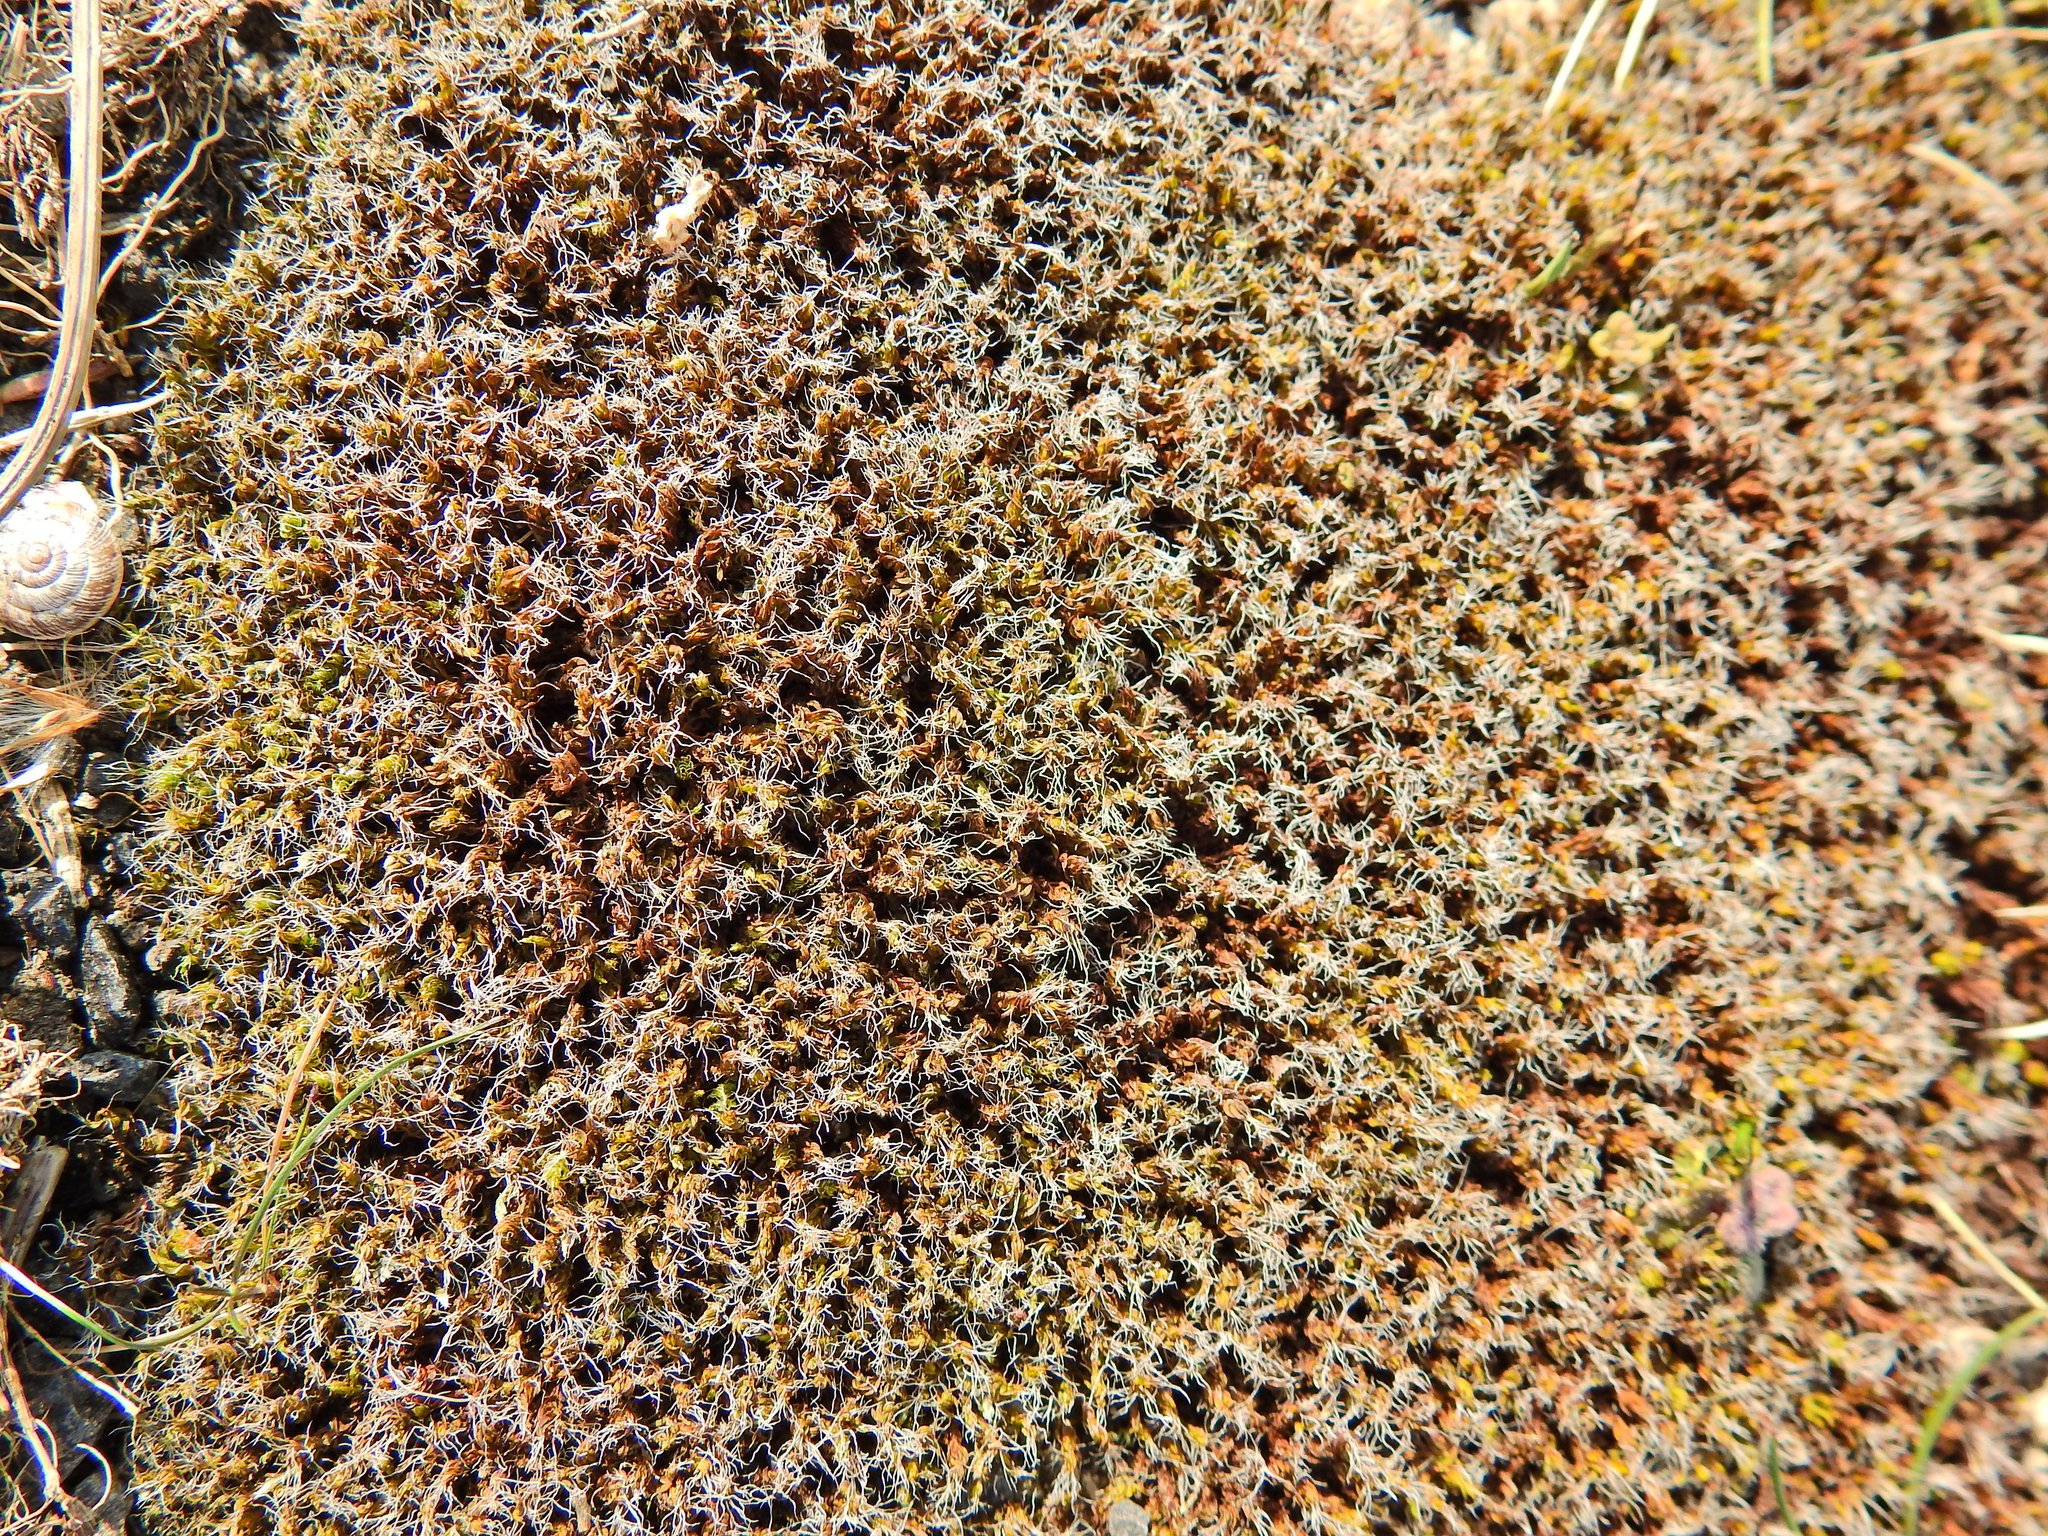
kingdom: Plantae
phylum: Bryophyta
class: Bryopsida
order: Pottiales
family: Pottiaceae
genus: Syntrichia
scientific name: Syntrichia ruralis
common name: Sidewalk screw moss
